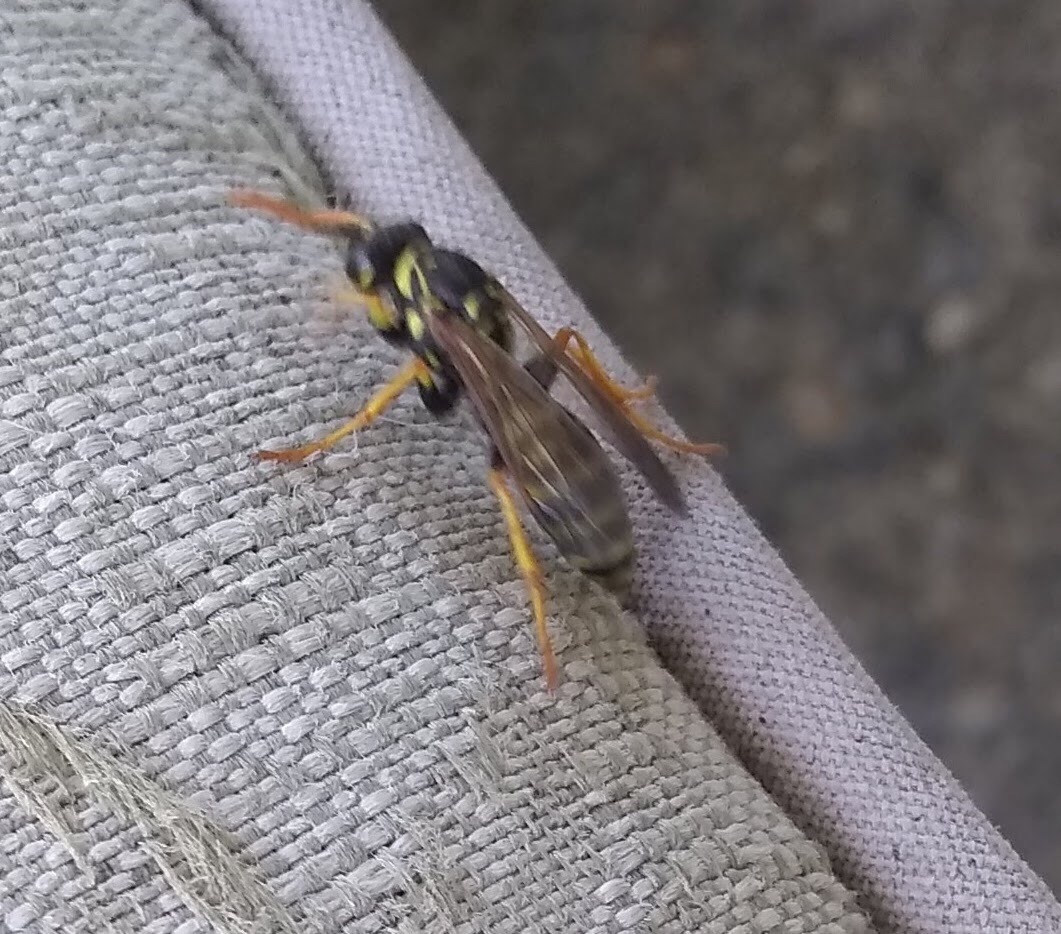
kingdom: Animalia
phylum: Arthropoda
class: Insecta
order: Hymenoptera
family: Eumenidae
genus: Polistes
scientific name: Polistes dominula
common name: Paper wasp
